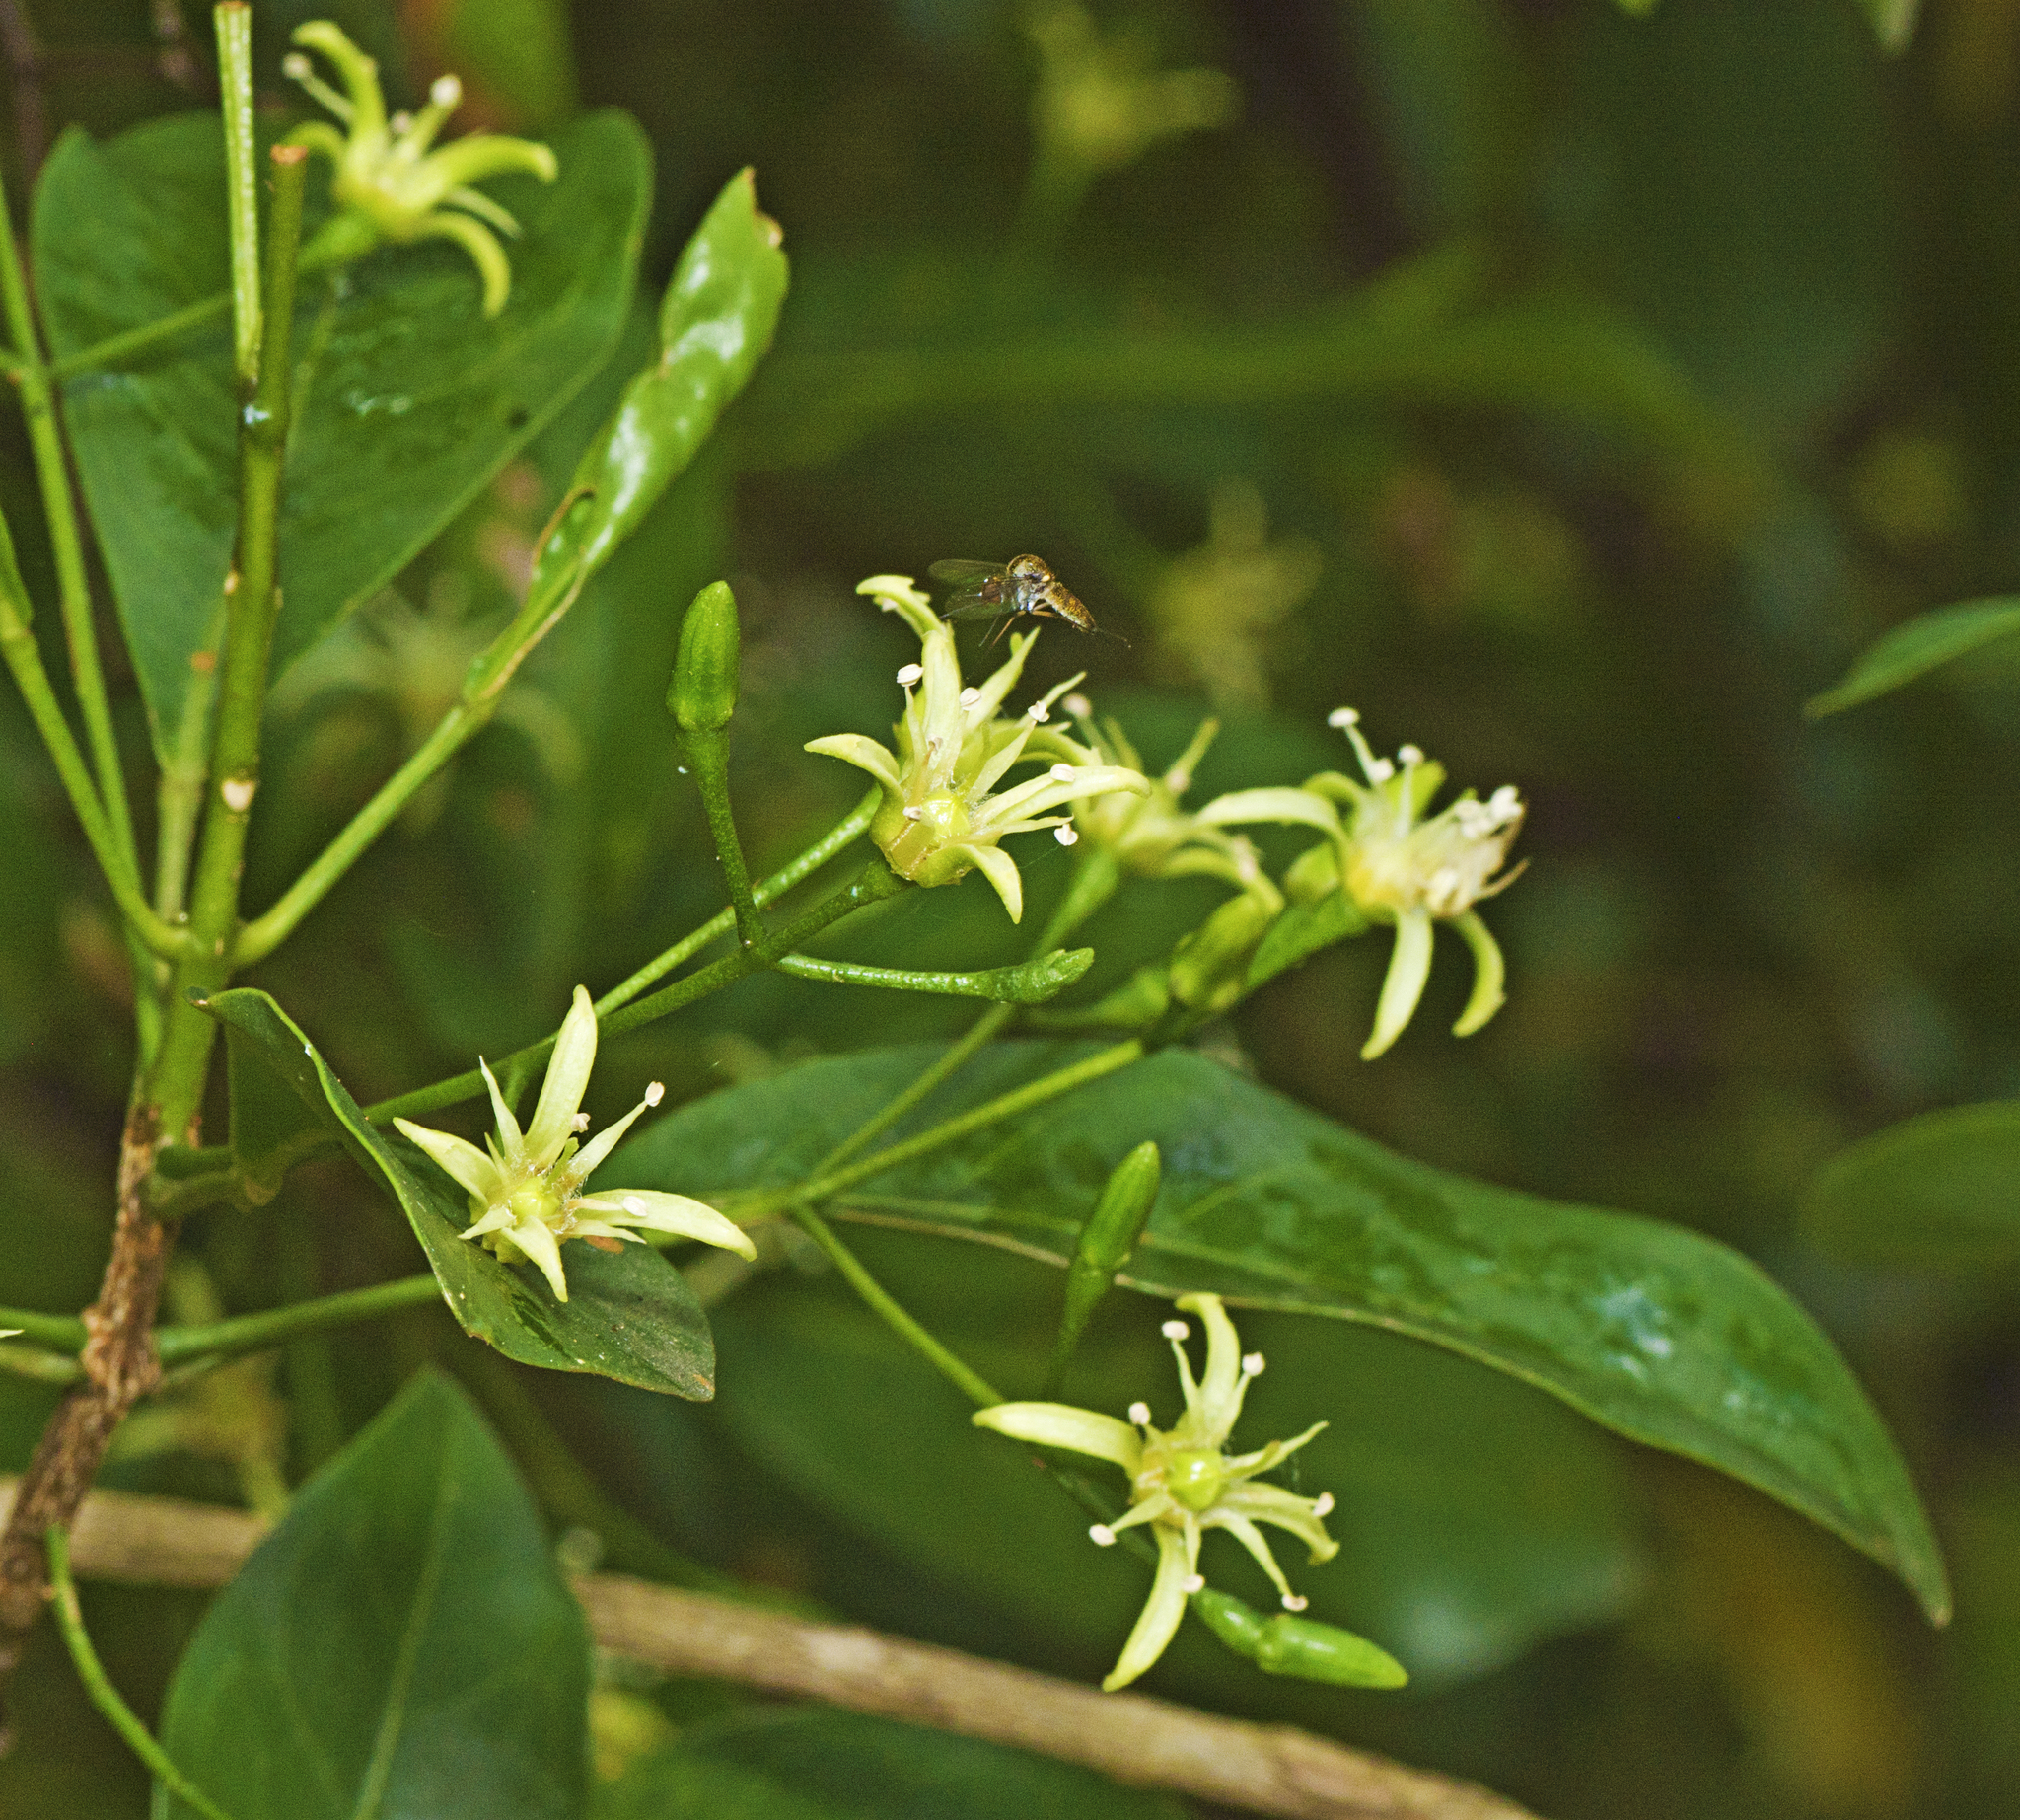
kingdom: Plantae
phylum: Tracheophyta
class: Magnoliopsida
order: Sapindales
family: Rutaceae
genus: Acronychia
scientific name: Acronychia laevis
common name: Hard aspen
